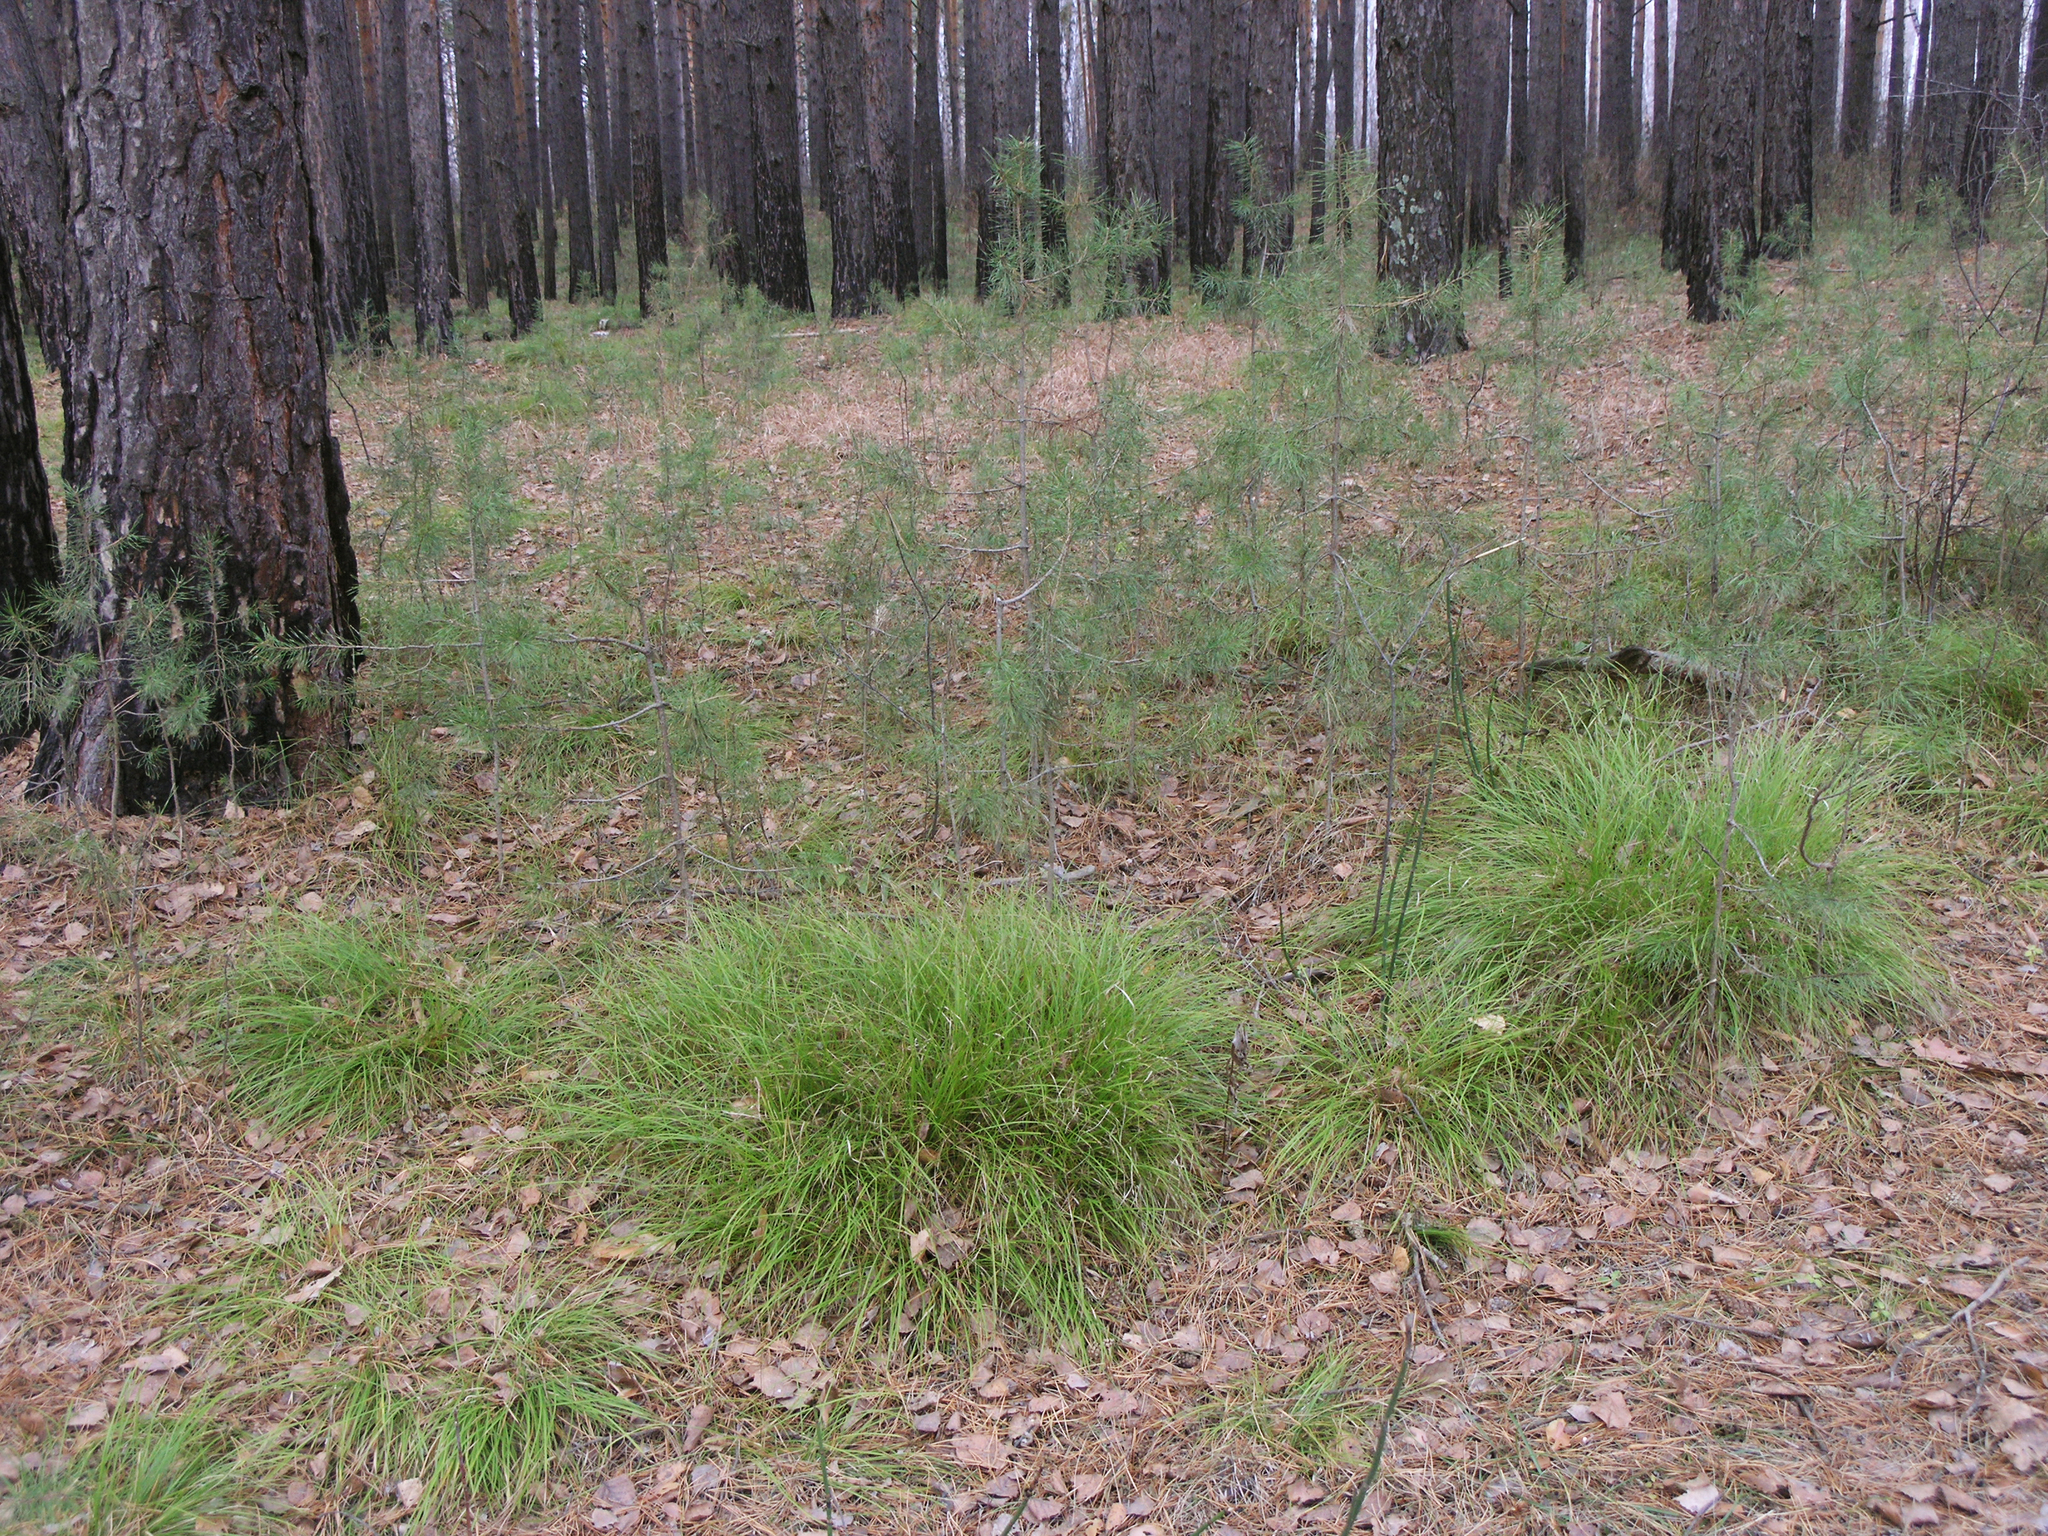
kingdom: Plantae
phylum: Tracheophyta
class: Liliopsida
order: Poales
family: Cyperaceae
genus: Carex
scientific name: Carex pediformis
